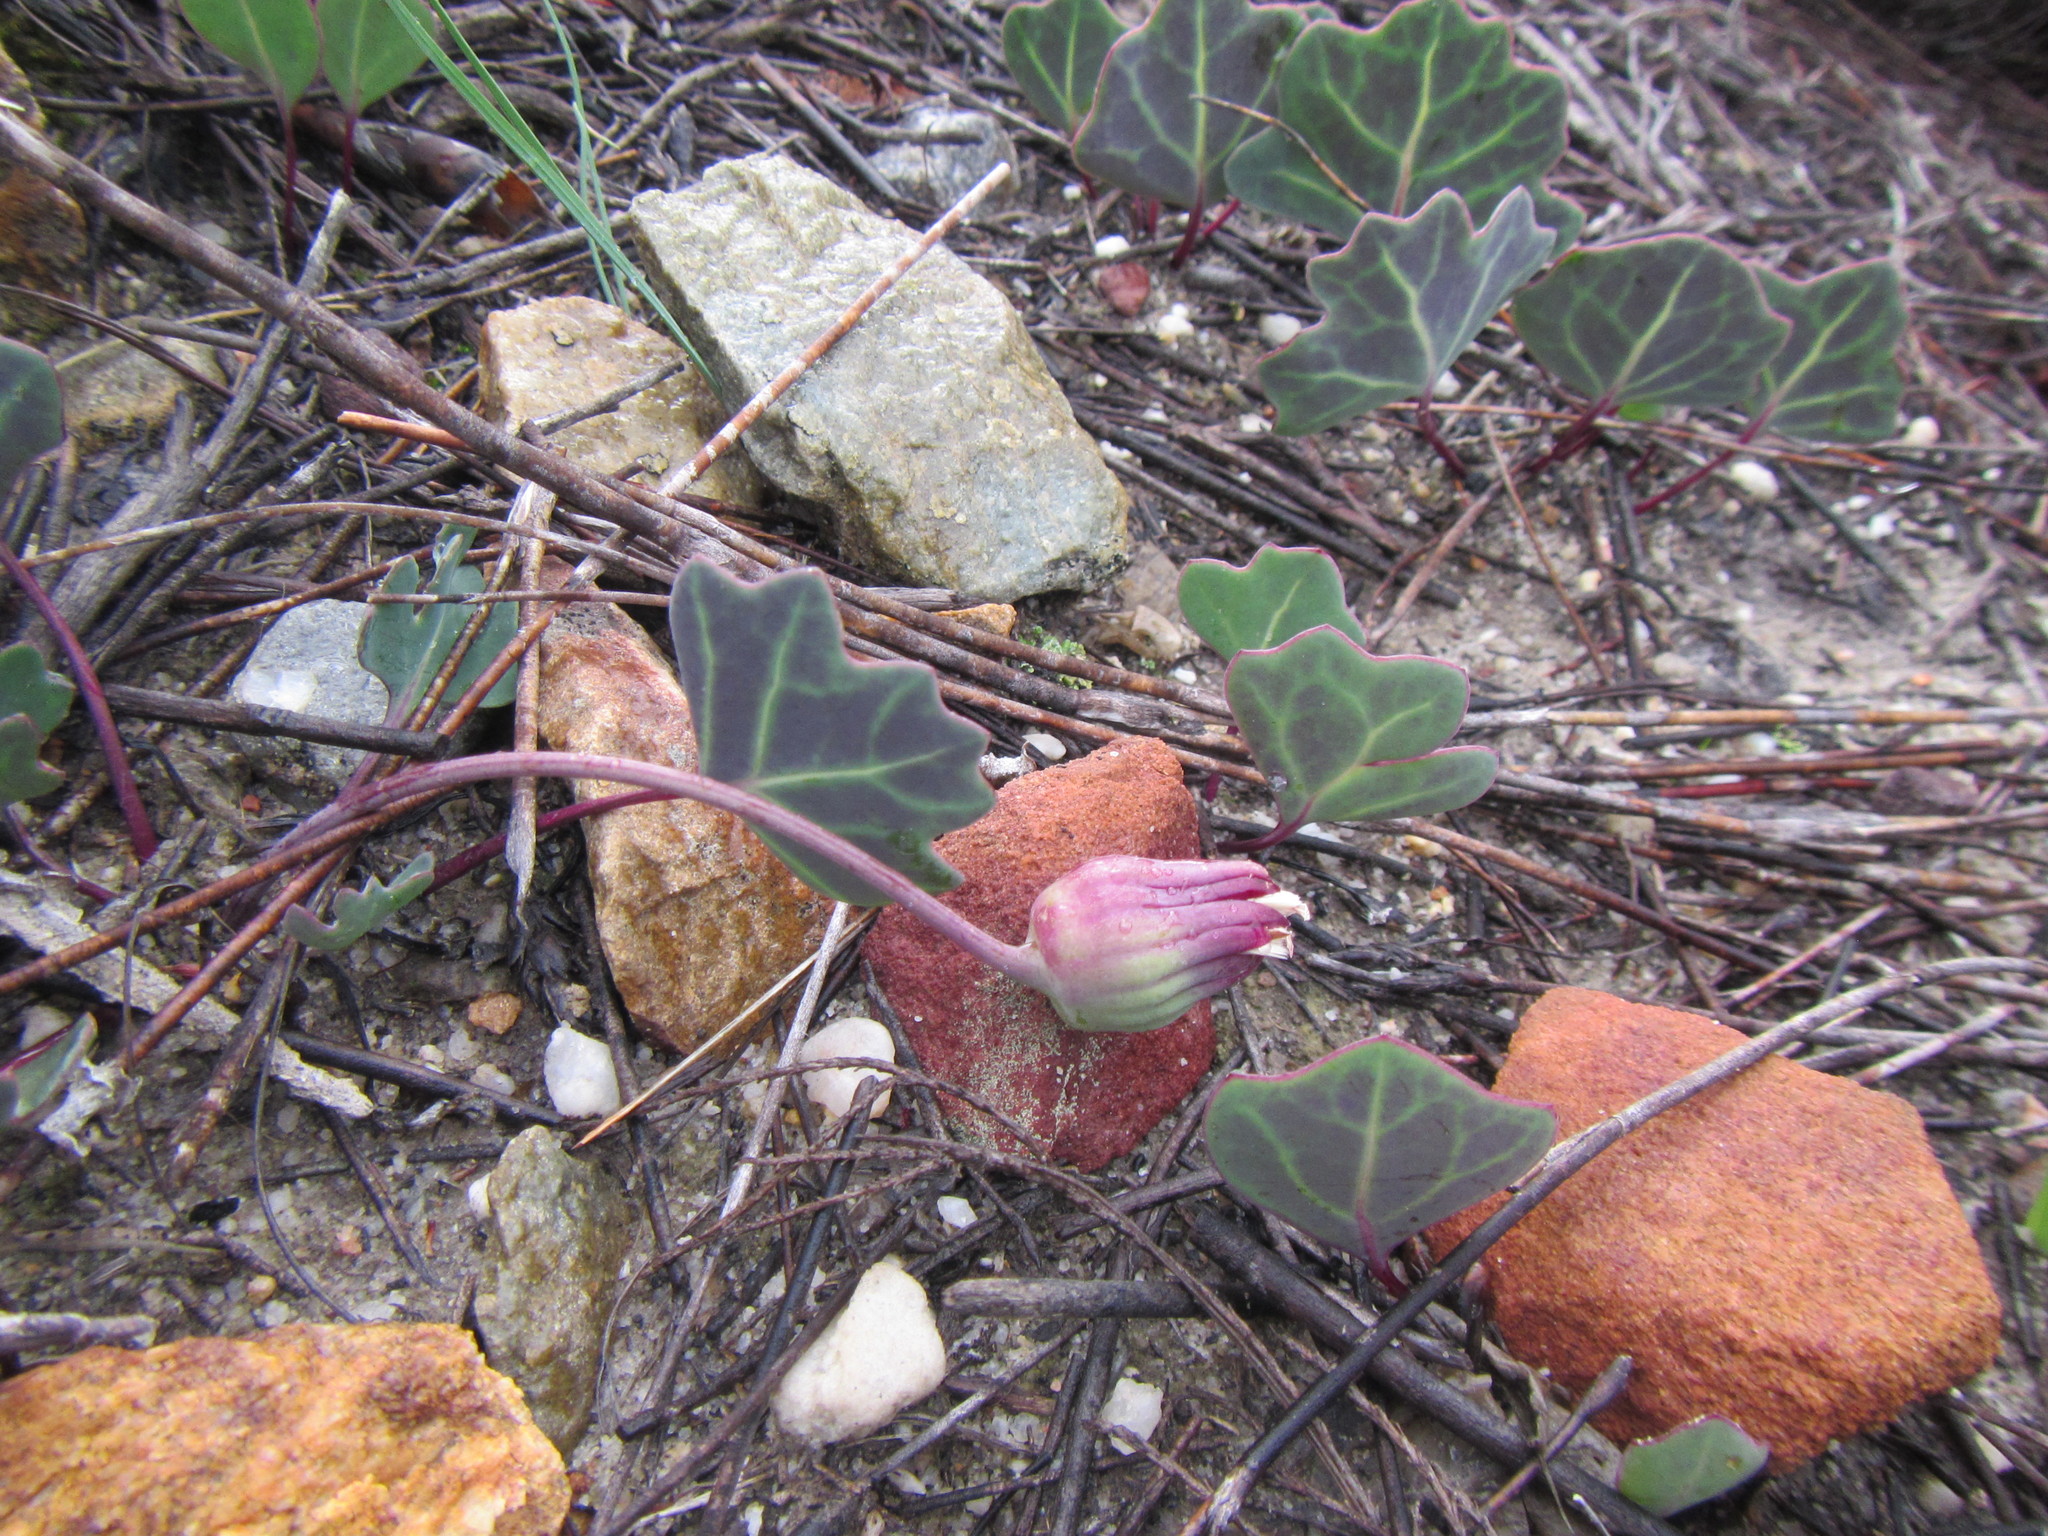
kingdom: Plantae
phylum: Tracheophyta
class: Magnoliopsida
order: Asterales
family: Asteraceae
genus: Othonna
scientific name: Othonna hederifolia
